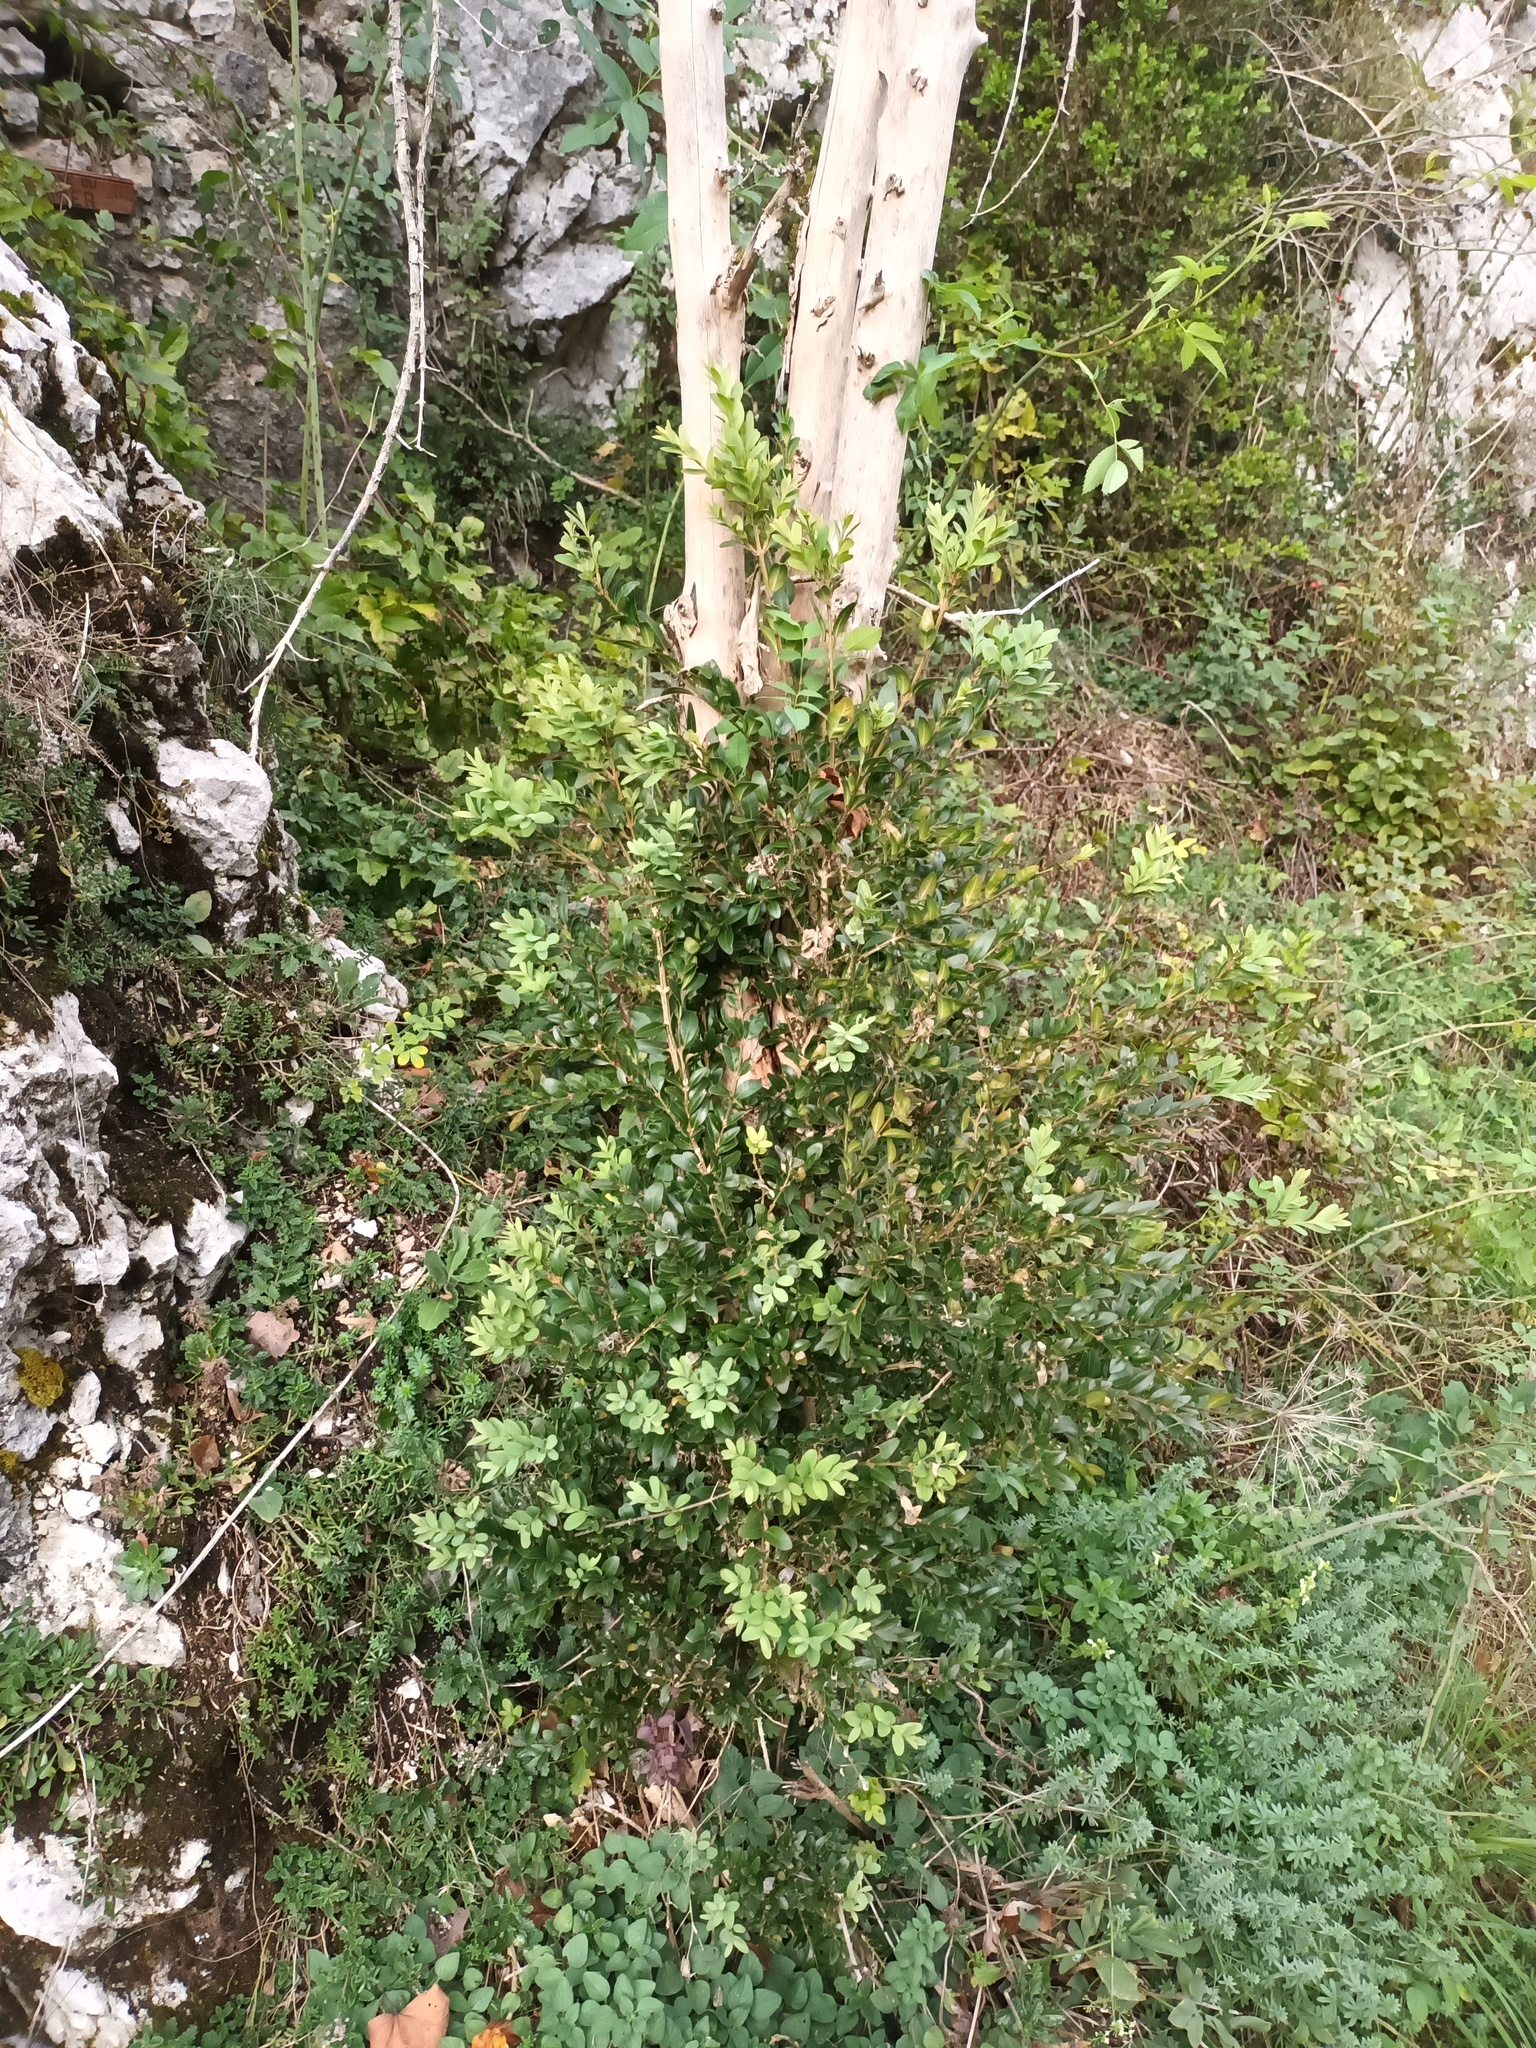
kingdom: Plantae
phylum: Tracheophyta
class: Magnoliopsida
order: Buxales
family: Buxaceae
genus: Buxus
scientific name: Buxus sempervirens
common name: Box
